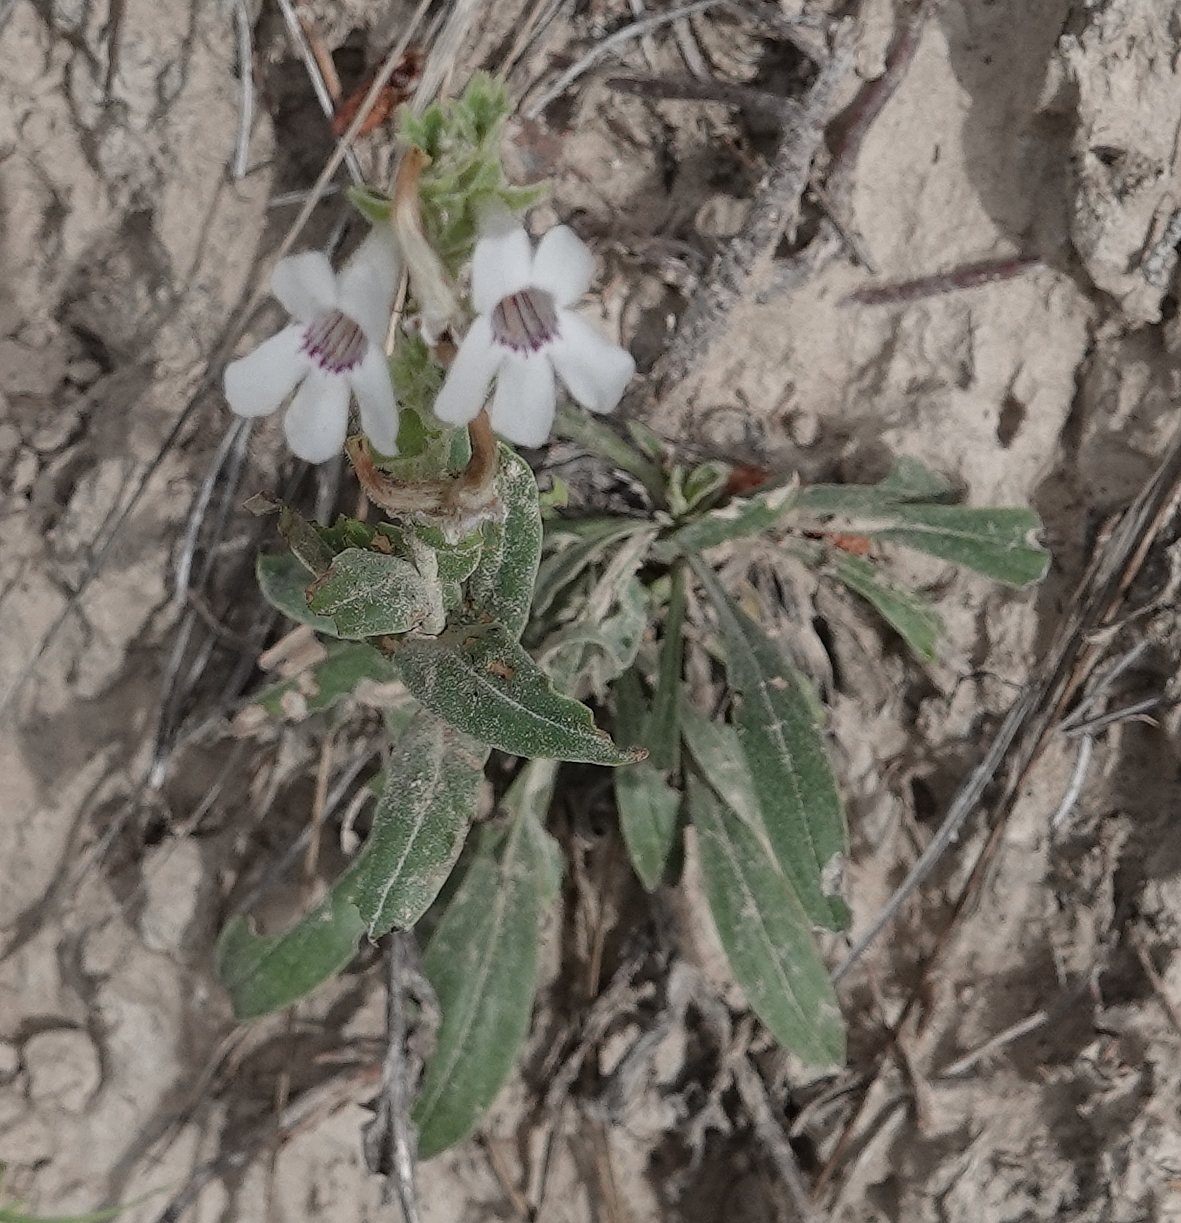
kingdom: Plantae
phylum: Tracheophyta
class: Magnoliopsida
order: Lamiales
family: Plantaginaceae
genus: Penstemon
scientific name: Penstemon albidus
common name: White beardtongue
